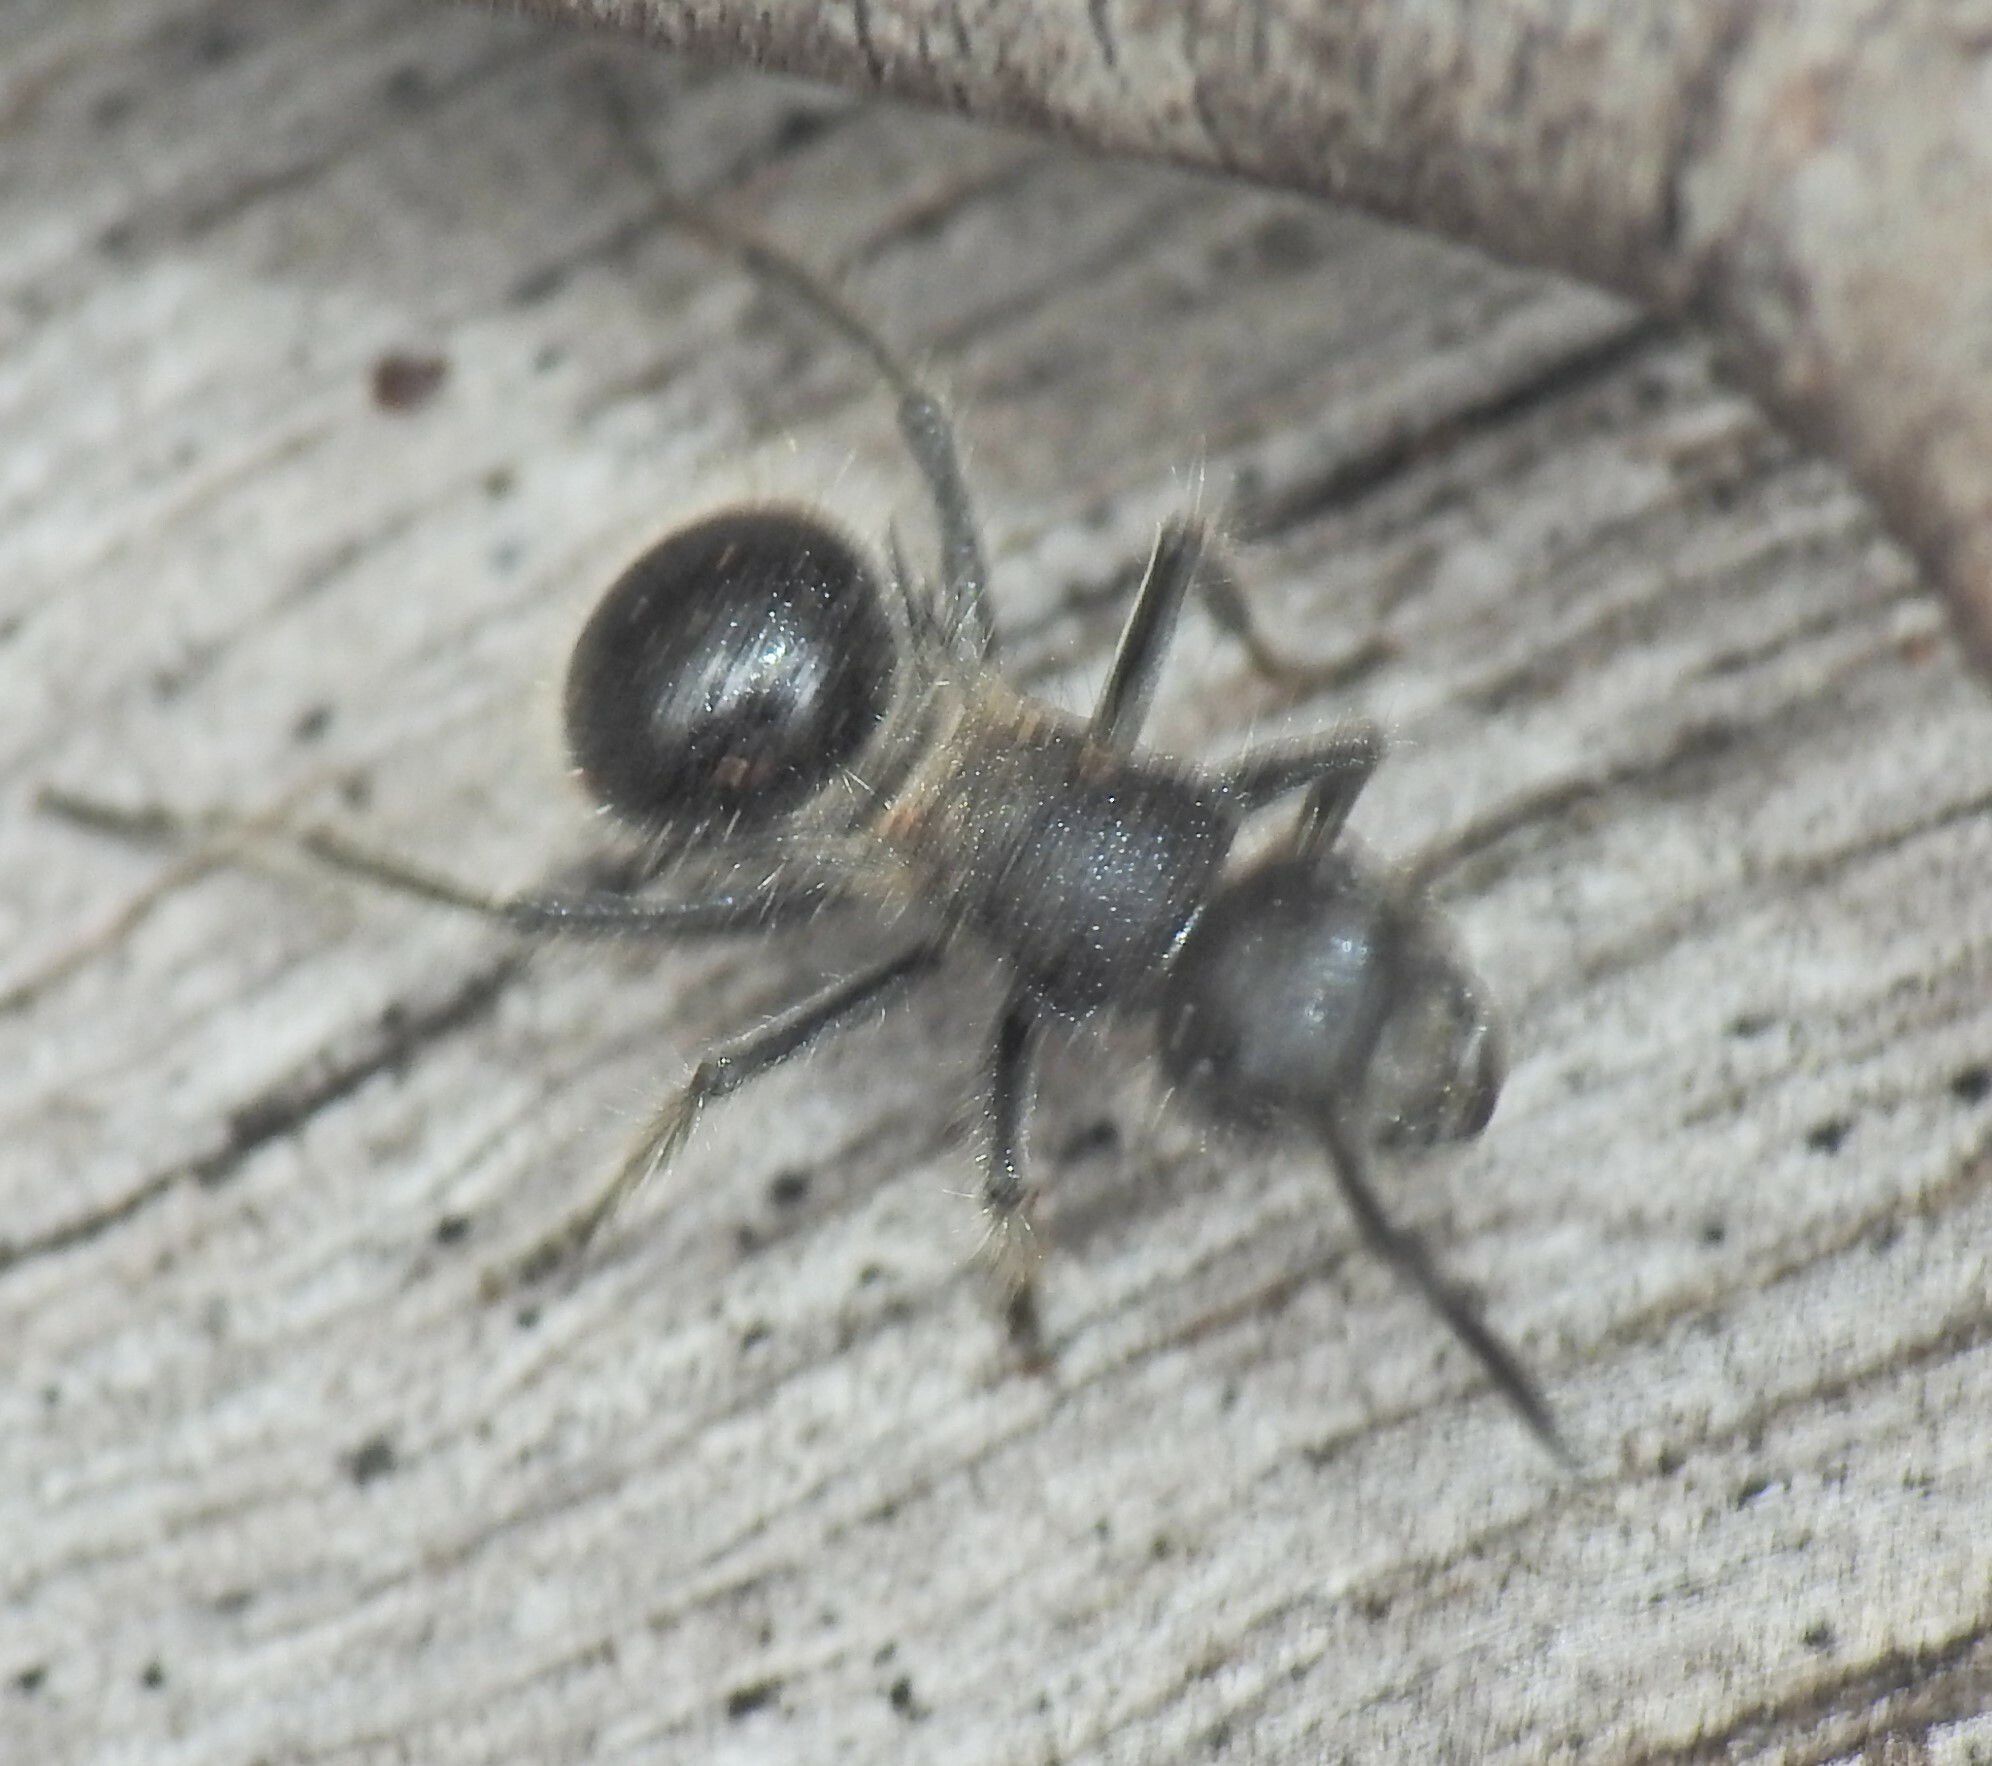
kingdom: Animalia
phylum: Arthropoda
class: Insecta
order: Hymenoptera
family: Formicidae
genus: Polyrhachis
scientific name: Polyrhachis punctiventris
